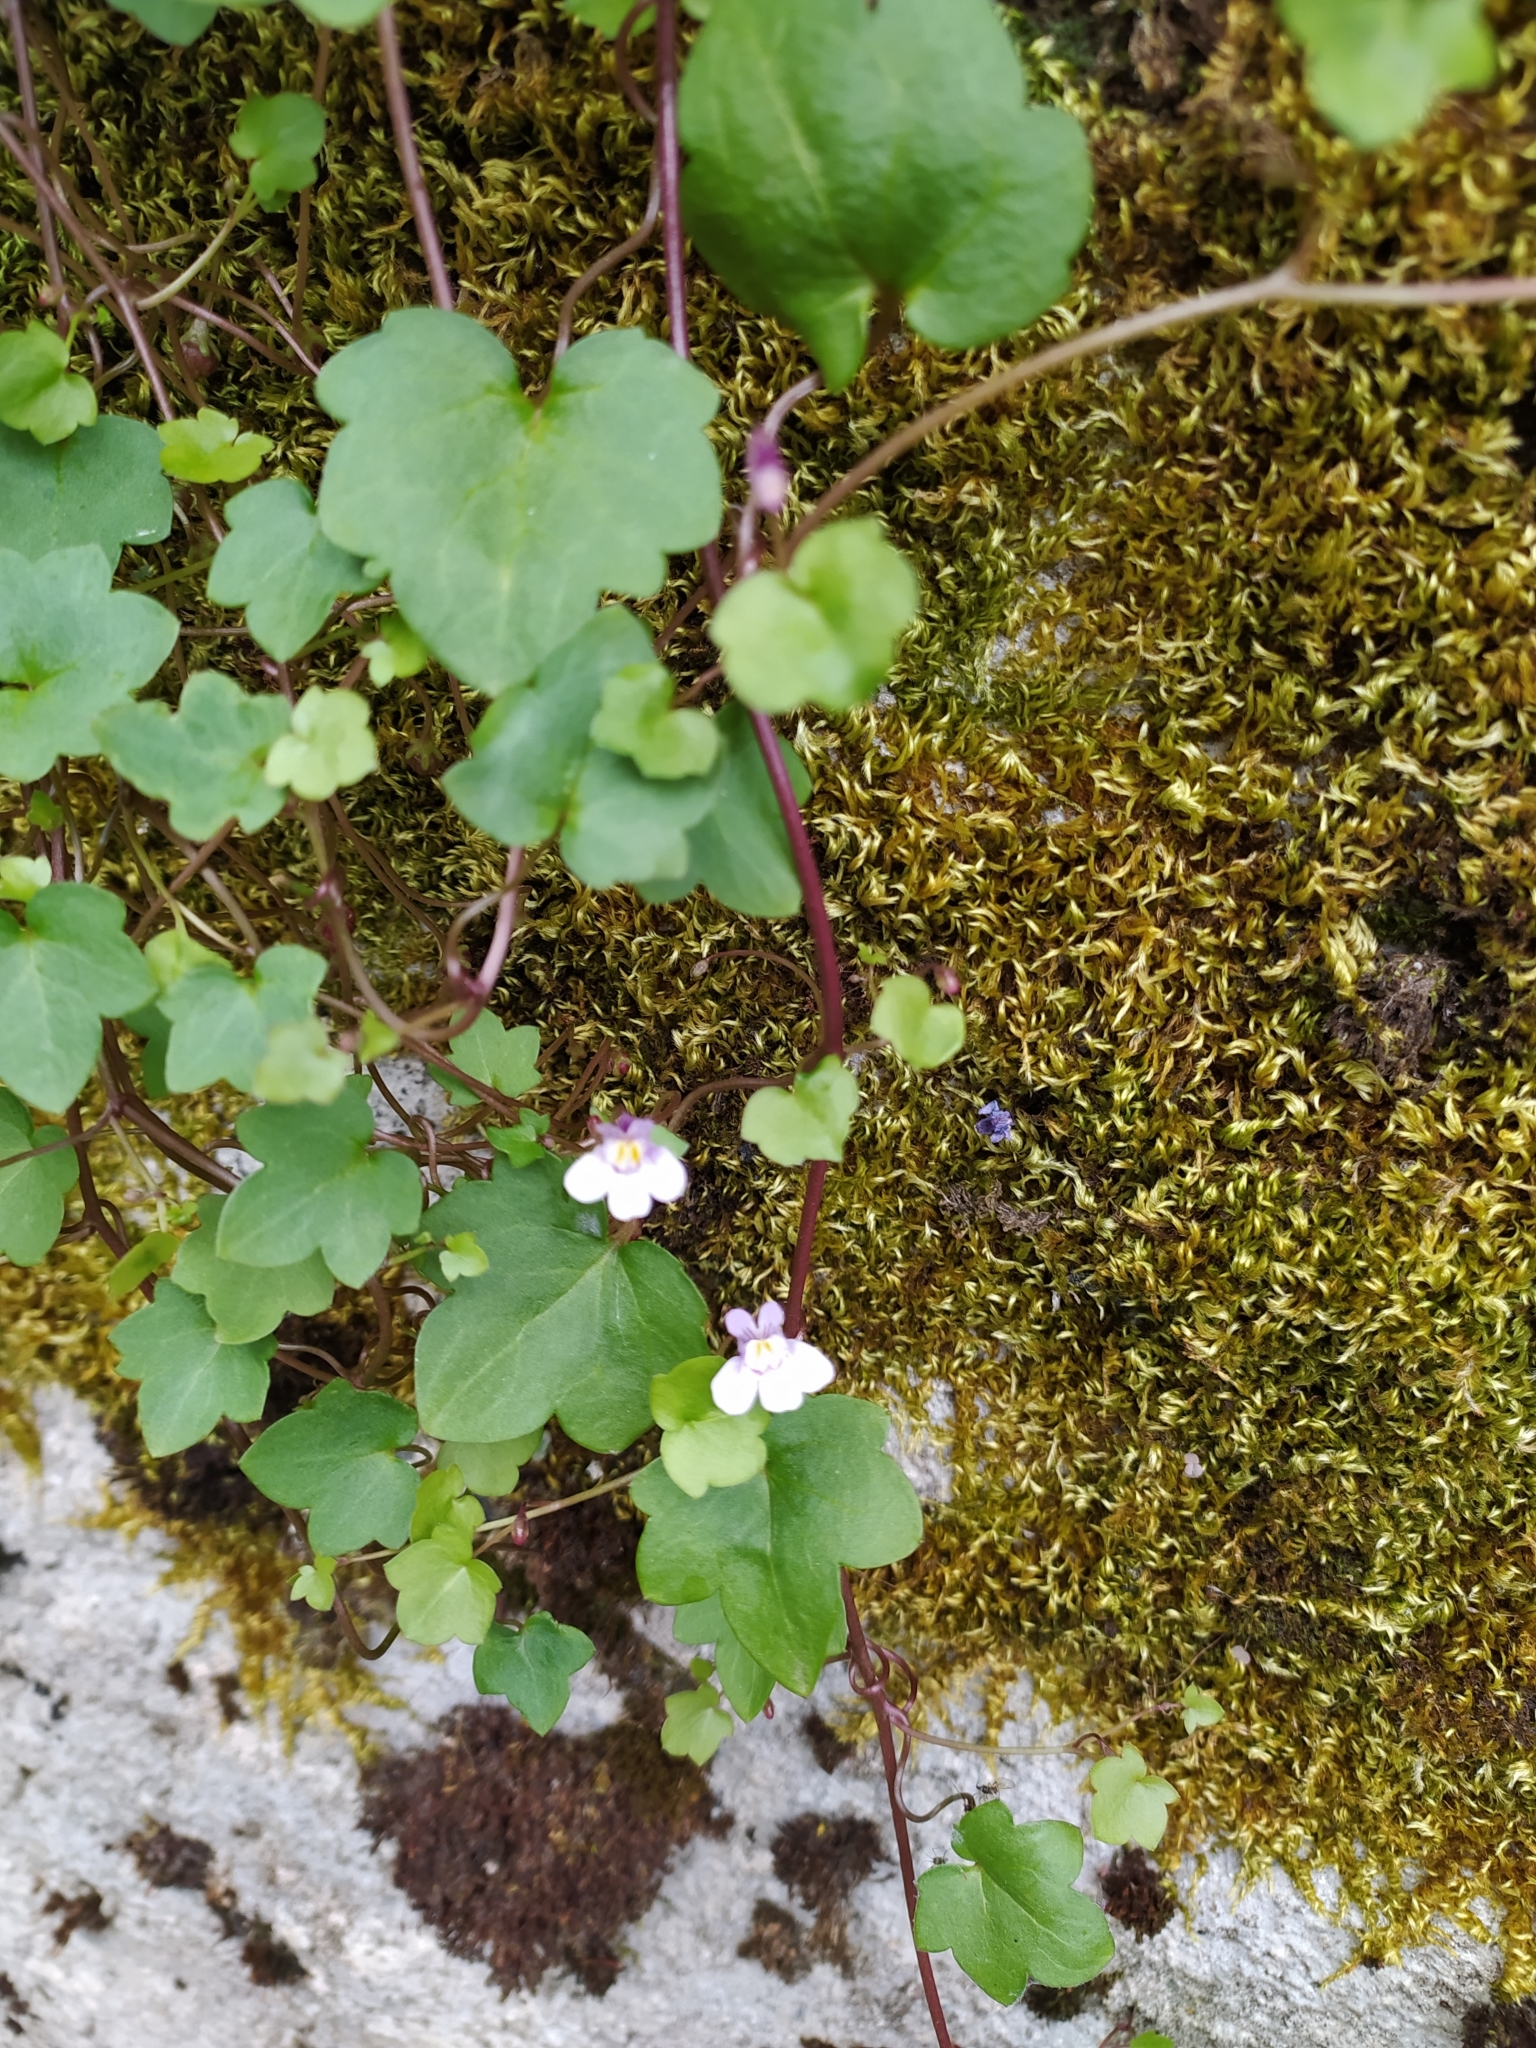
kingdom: Plantae
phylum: Tracheophyta
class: Magnoliopsida
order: Lamiales
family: Plantaginaceae
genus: Cymbalaria
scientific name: Cymbalaria muralis
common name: Ivy-leaved toadflax
